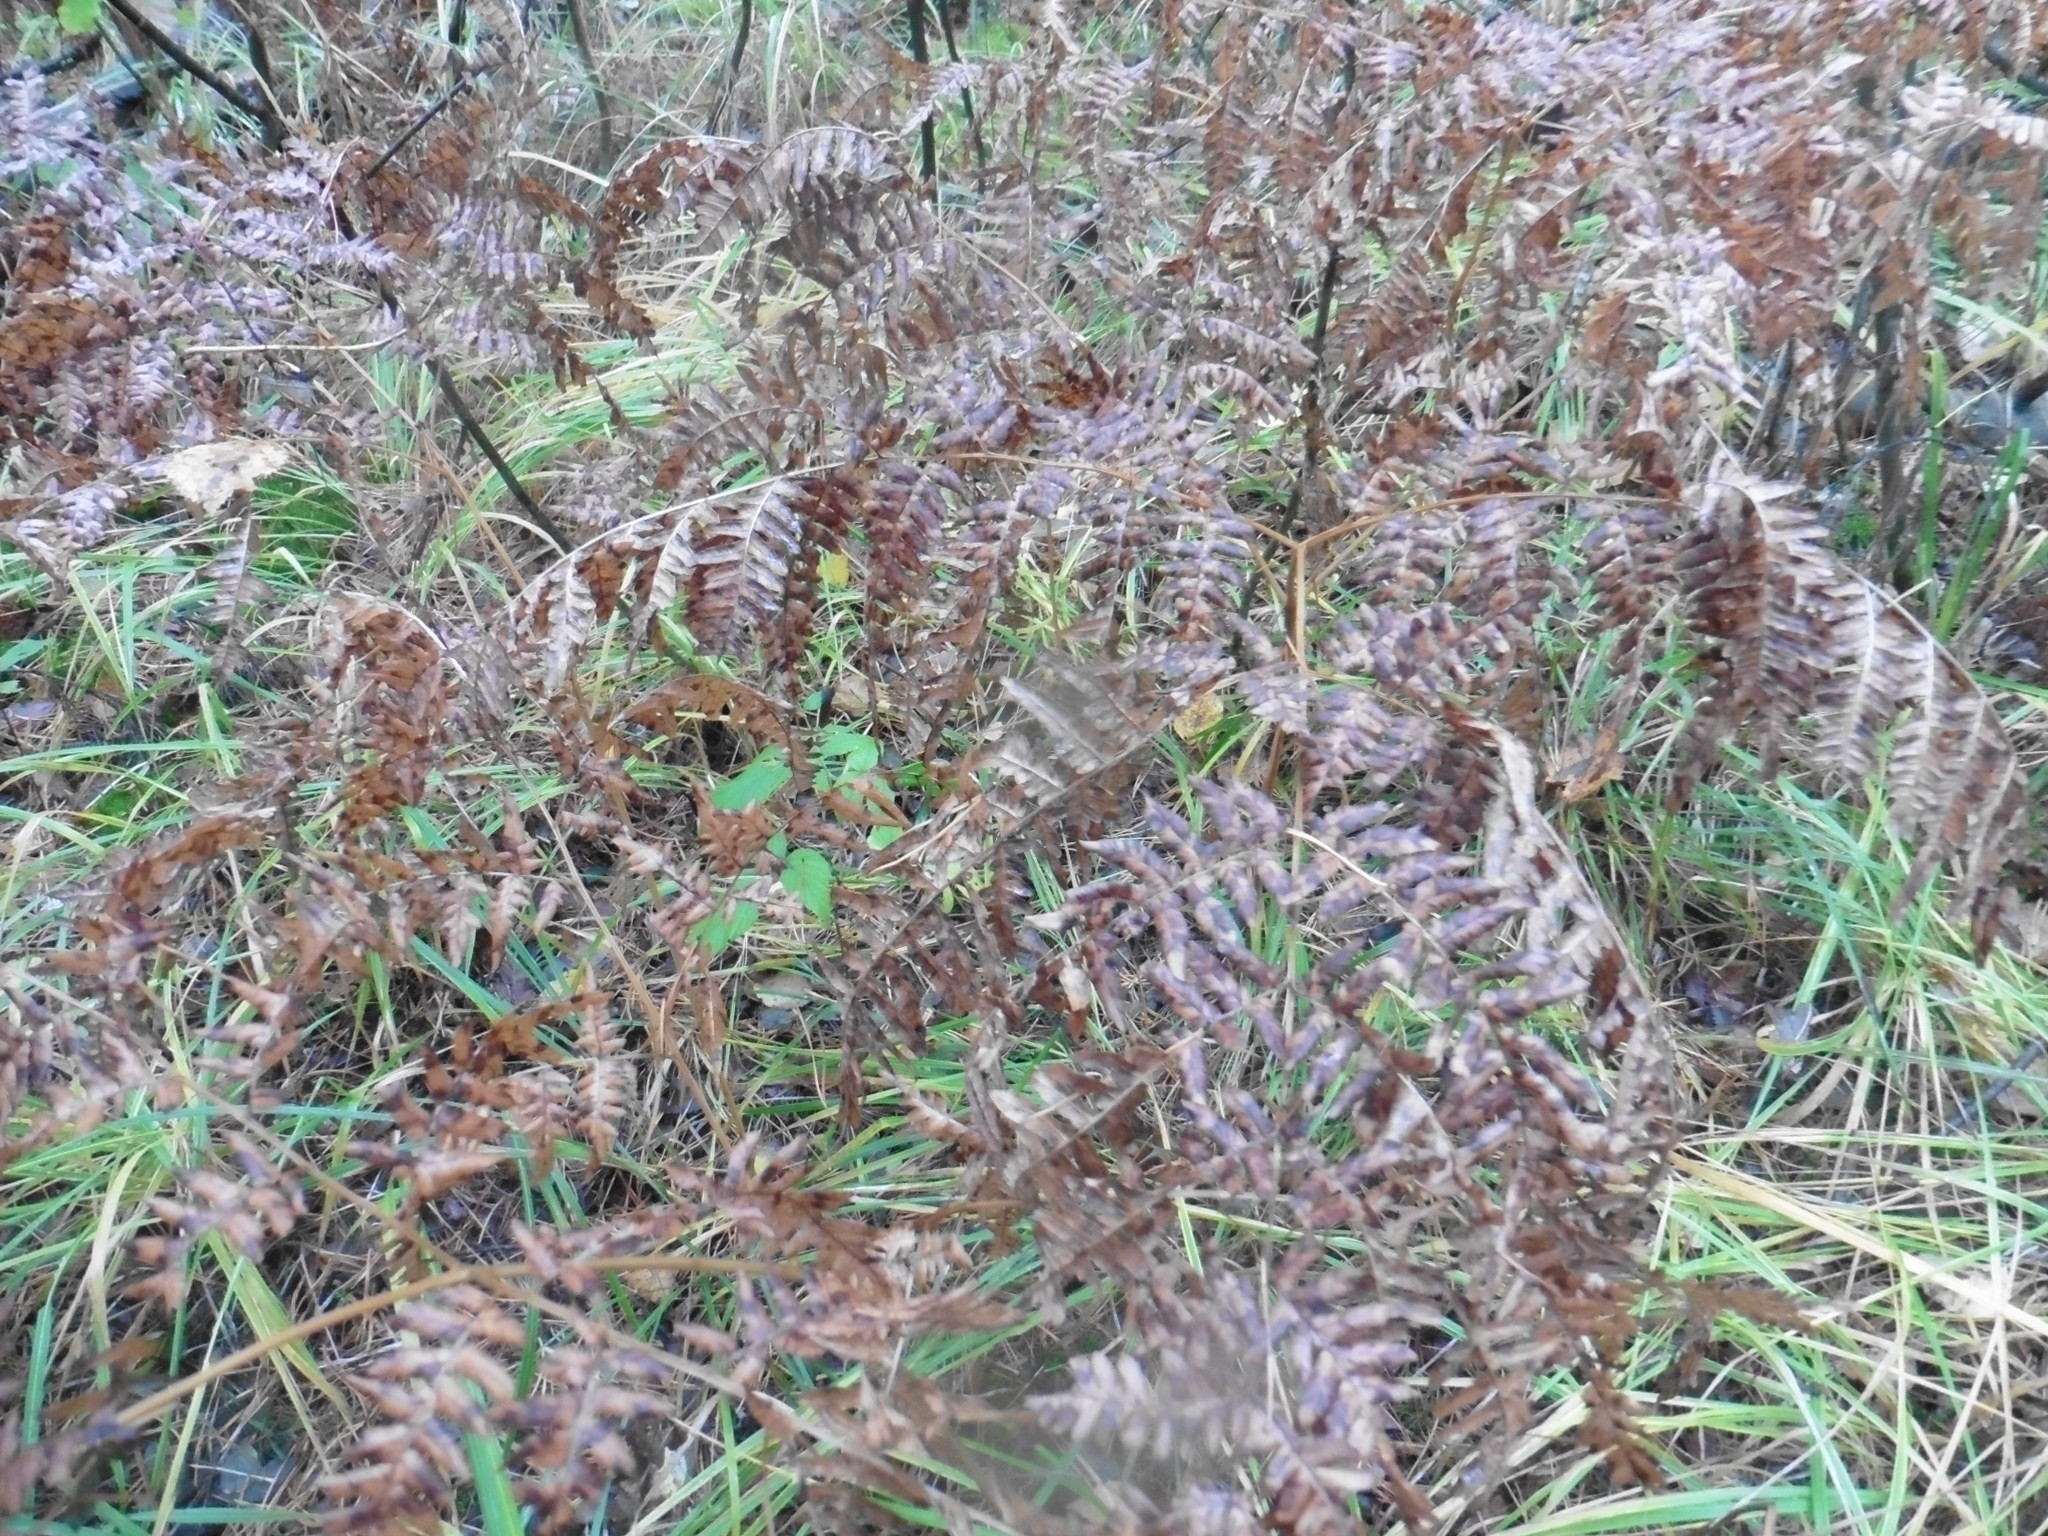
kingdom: Plantae
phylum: Tracheophyta
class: Polypodiopsida
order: Polypodiales
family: Dennstaedtiaceae
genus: Pteridium
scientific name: Pteridium aquilinum
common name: Bracken
